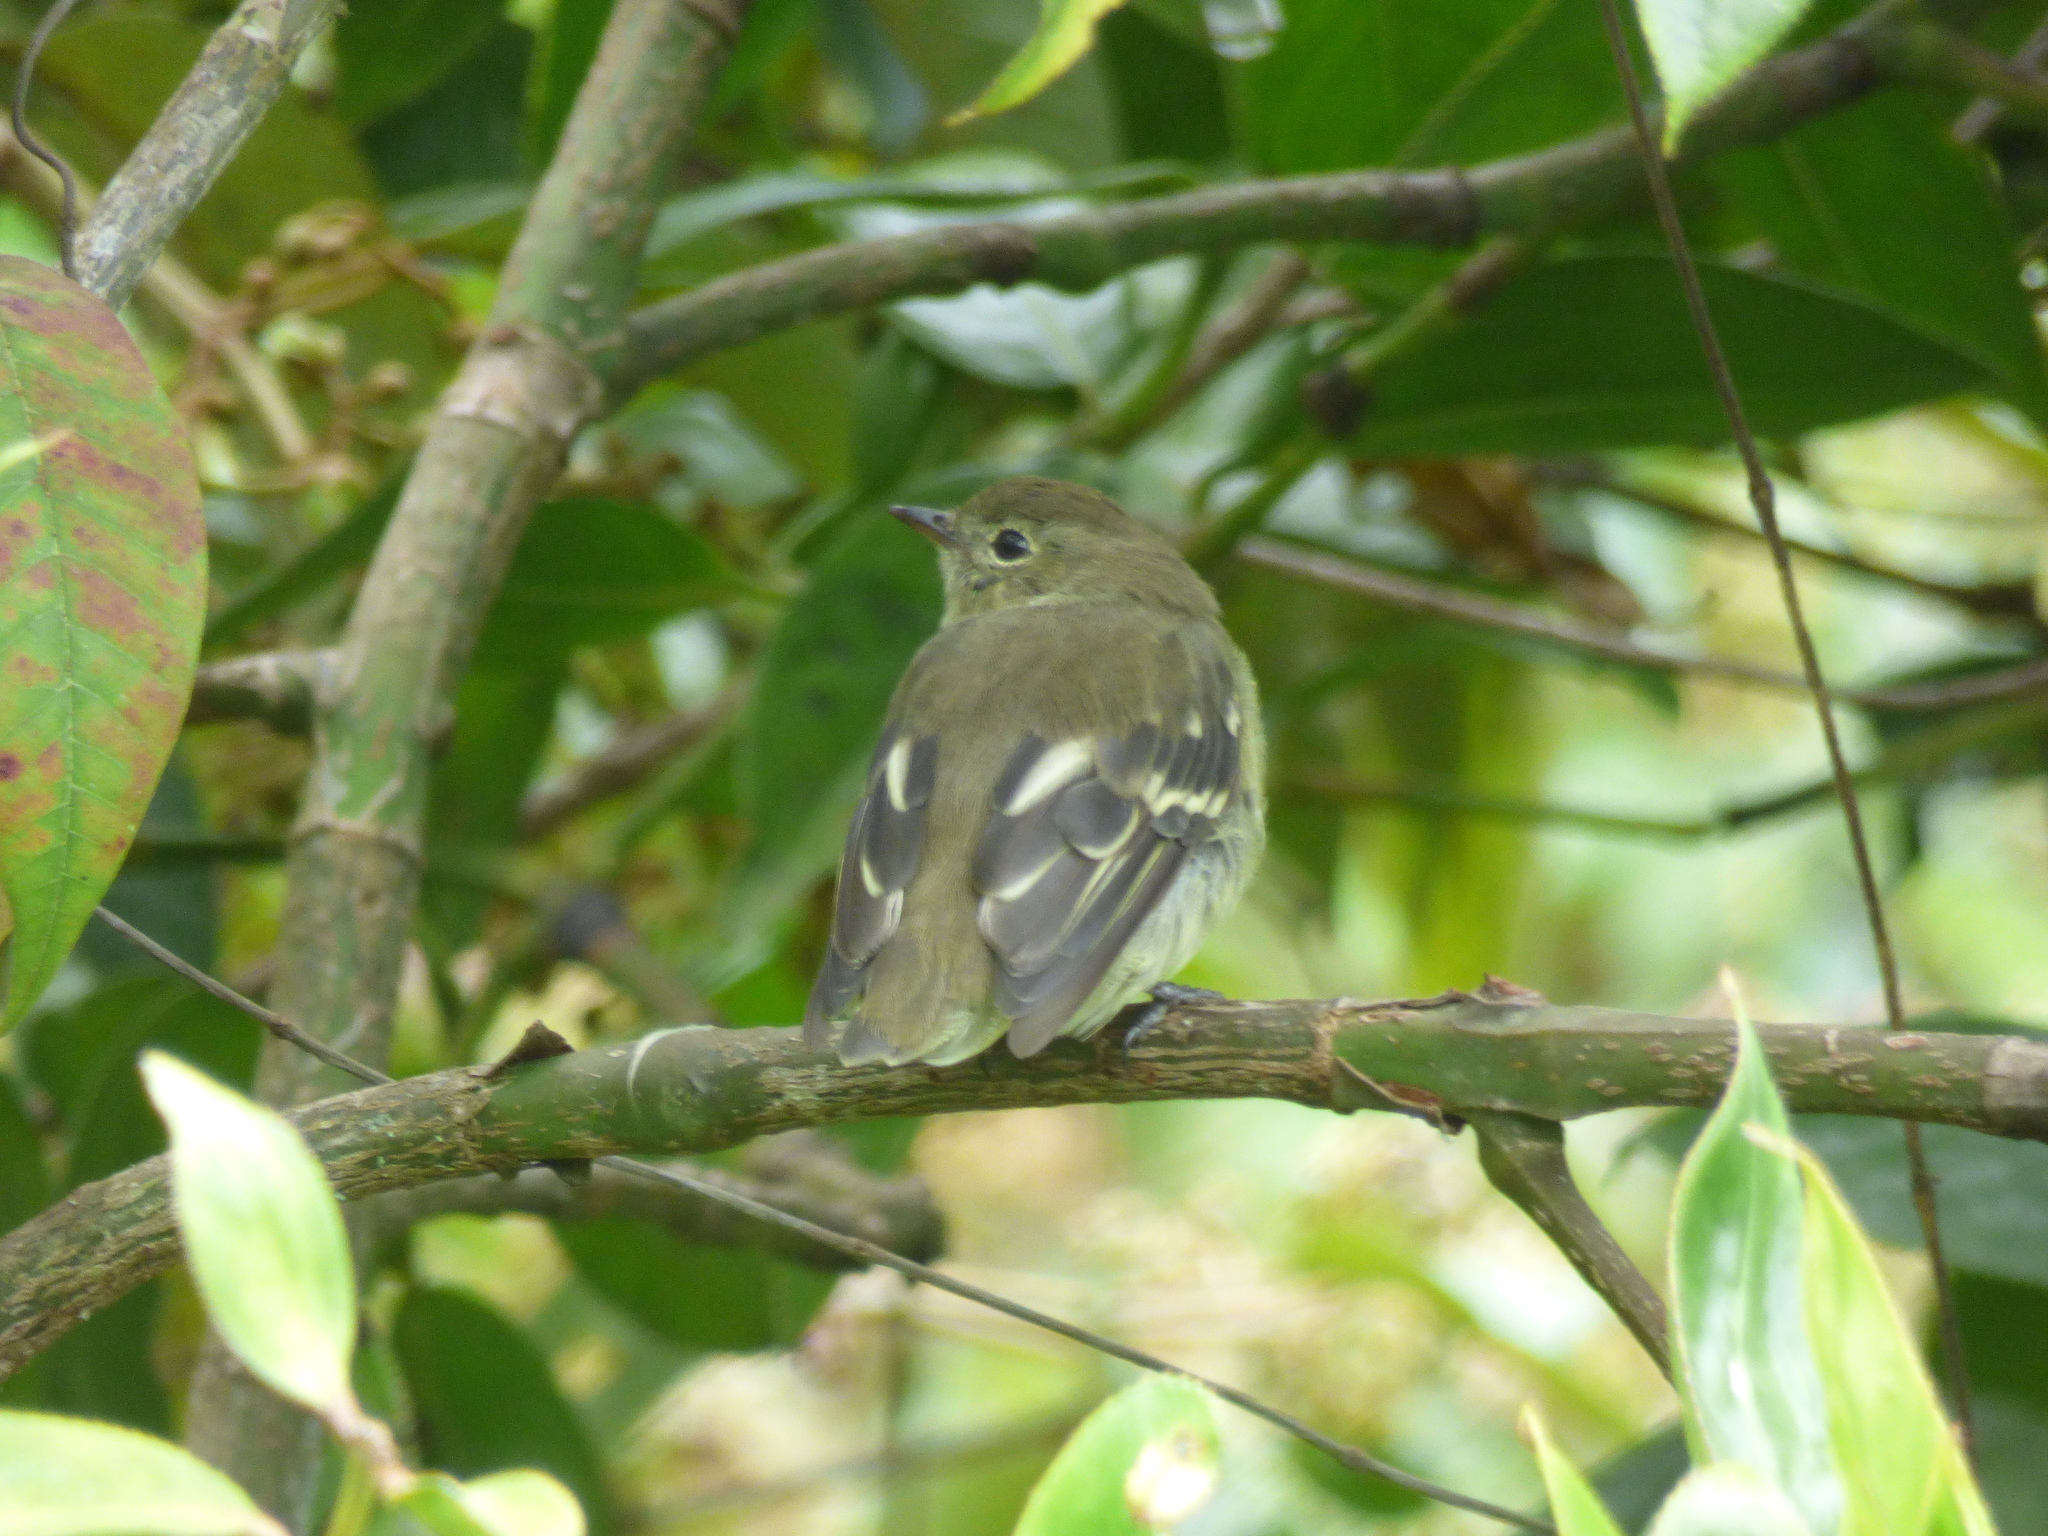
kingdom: Animalia
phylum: Chordata
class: Aves
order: Passeriformes
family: Tyrannidae
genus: Elaenia
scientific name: Elaenia frantzii
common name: Mountain elaenia
